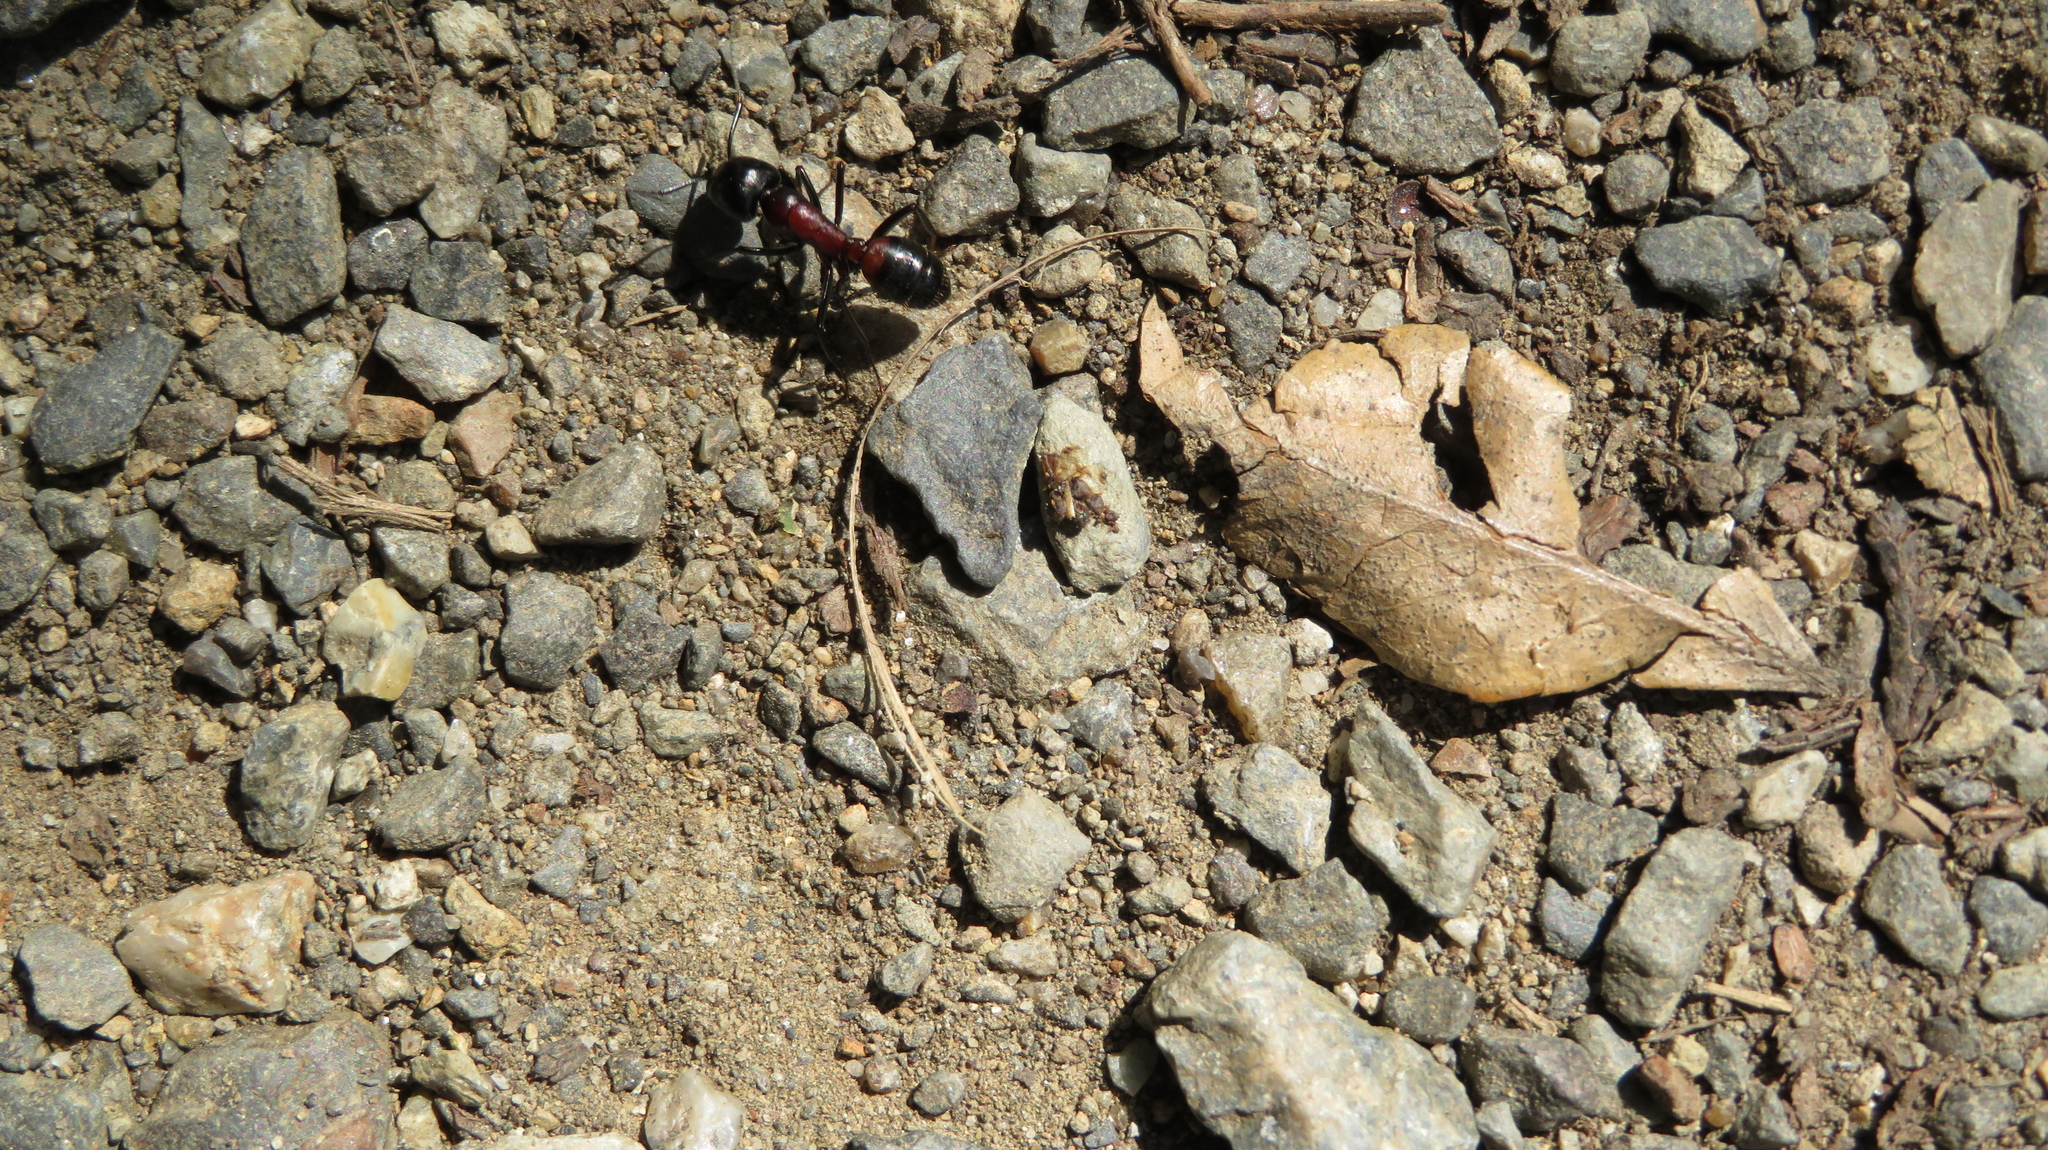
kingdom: Animalia
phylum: Arthropoda
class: Insecta
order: Hymenoptera
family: Formicidae
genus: Camponotus
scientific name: Camponotus obscuripes
